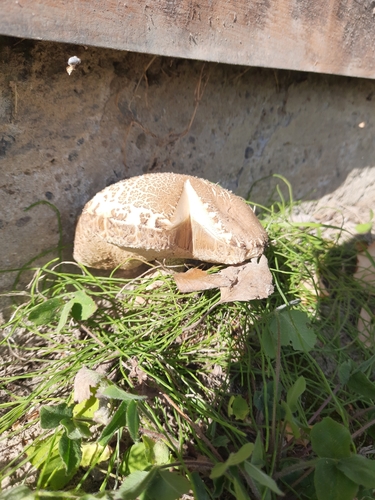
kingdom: Fungi
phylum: Basidiomycota
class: Agaricomycetes
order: Boletales
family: Boletaceae
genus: Leccinum
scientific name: Leccinum scabrum
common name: Blushing bolete
